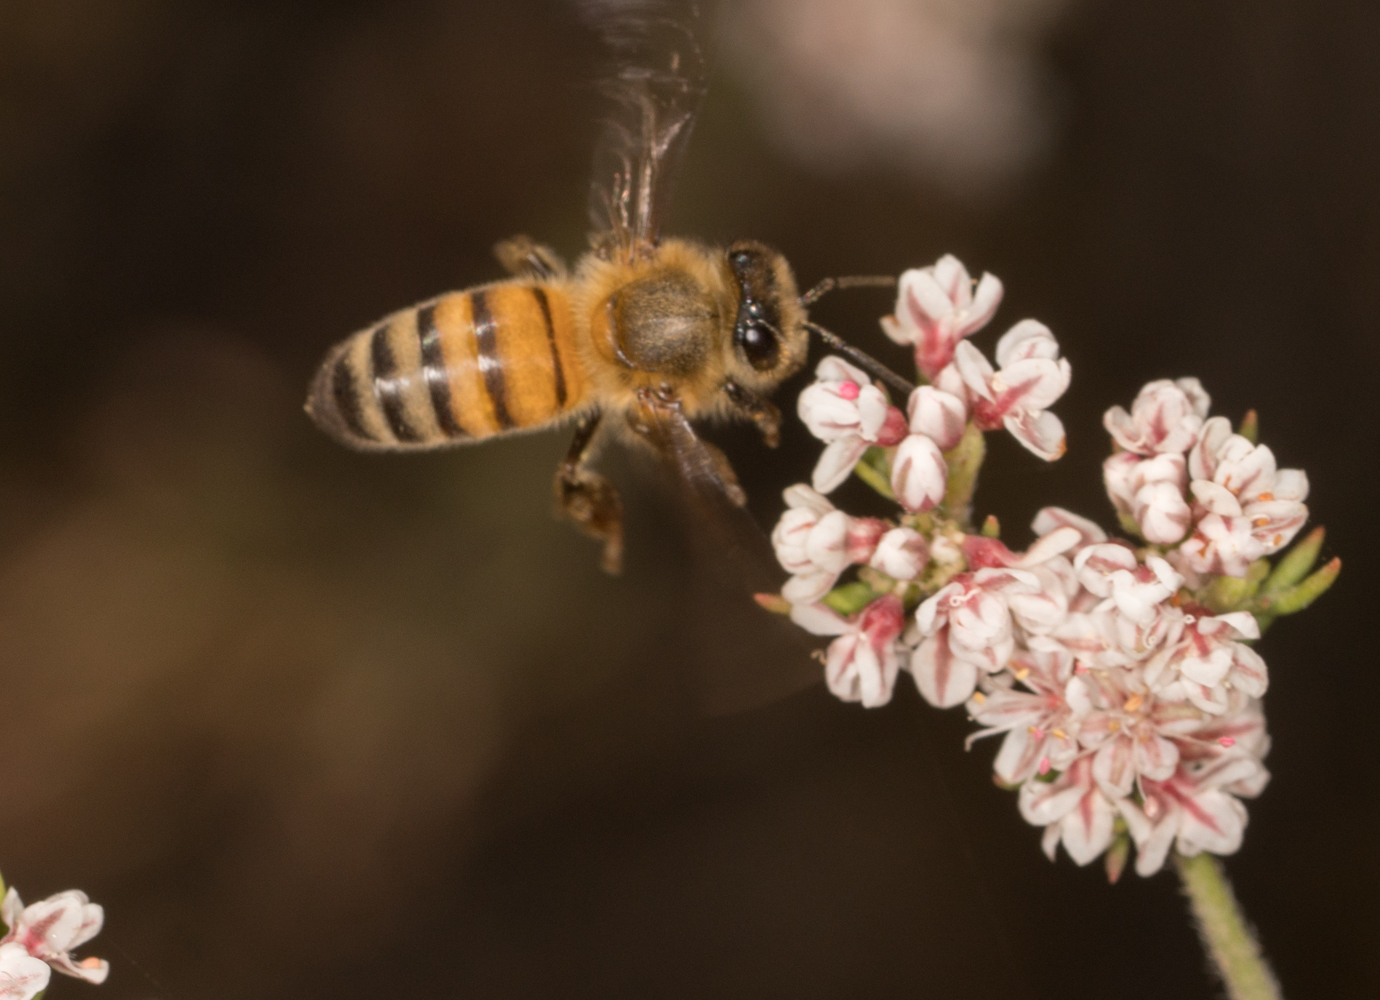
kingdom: Animalia
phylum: Arthropoda
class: Insecta
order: Hymenoptera
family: Apidae
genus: Apis
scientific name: Apis mellifera
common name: Honey bee
